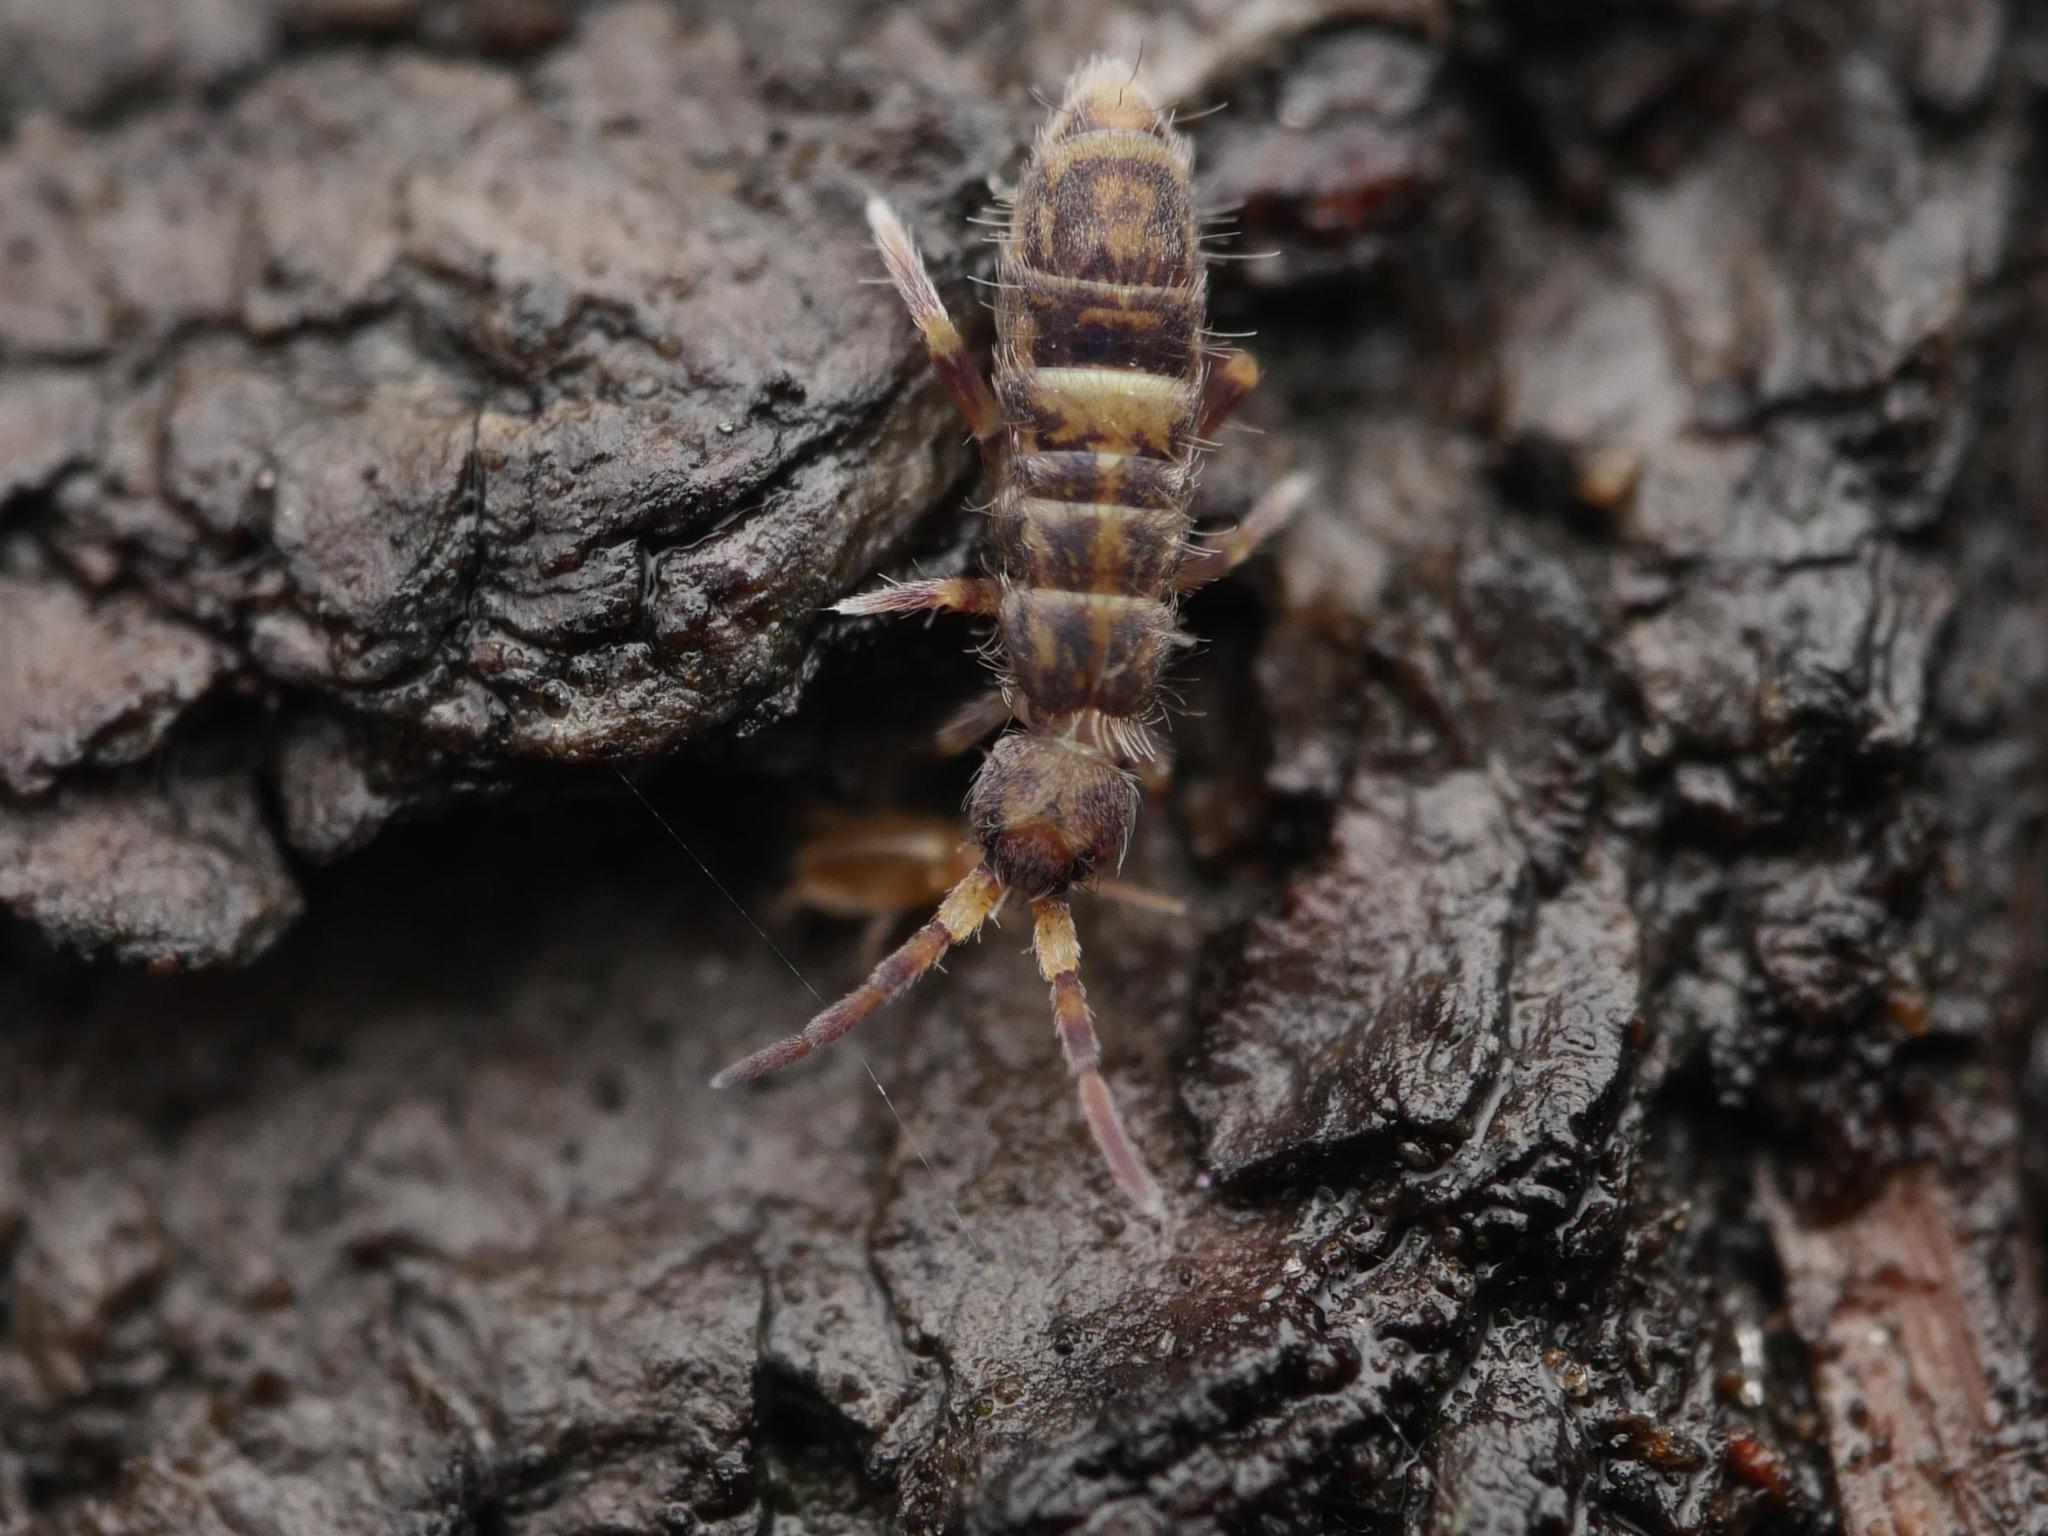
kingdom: Animalia
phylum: Arthropoda
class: Collembola
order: Entomobryomorpha
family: Orchesellidae
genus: Orchesella
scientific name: Orchesella cincta
